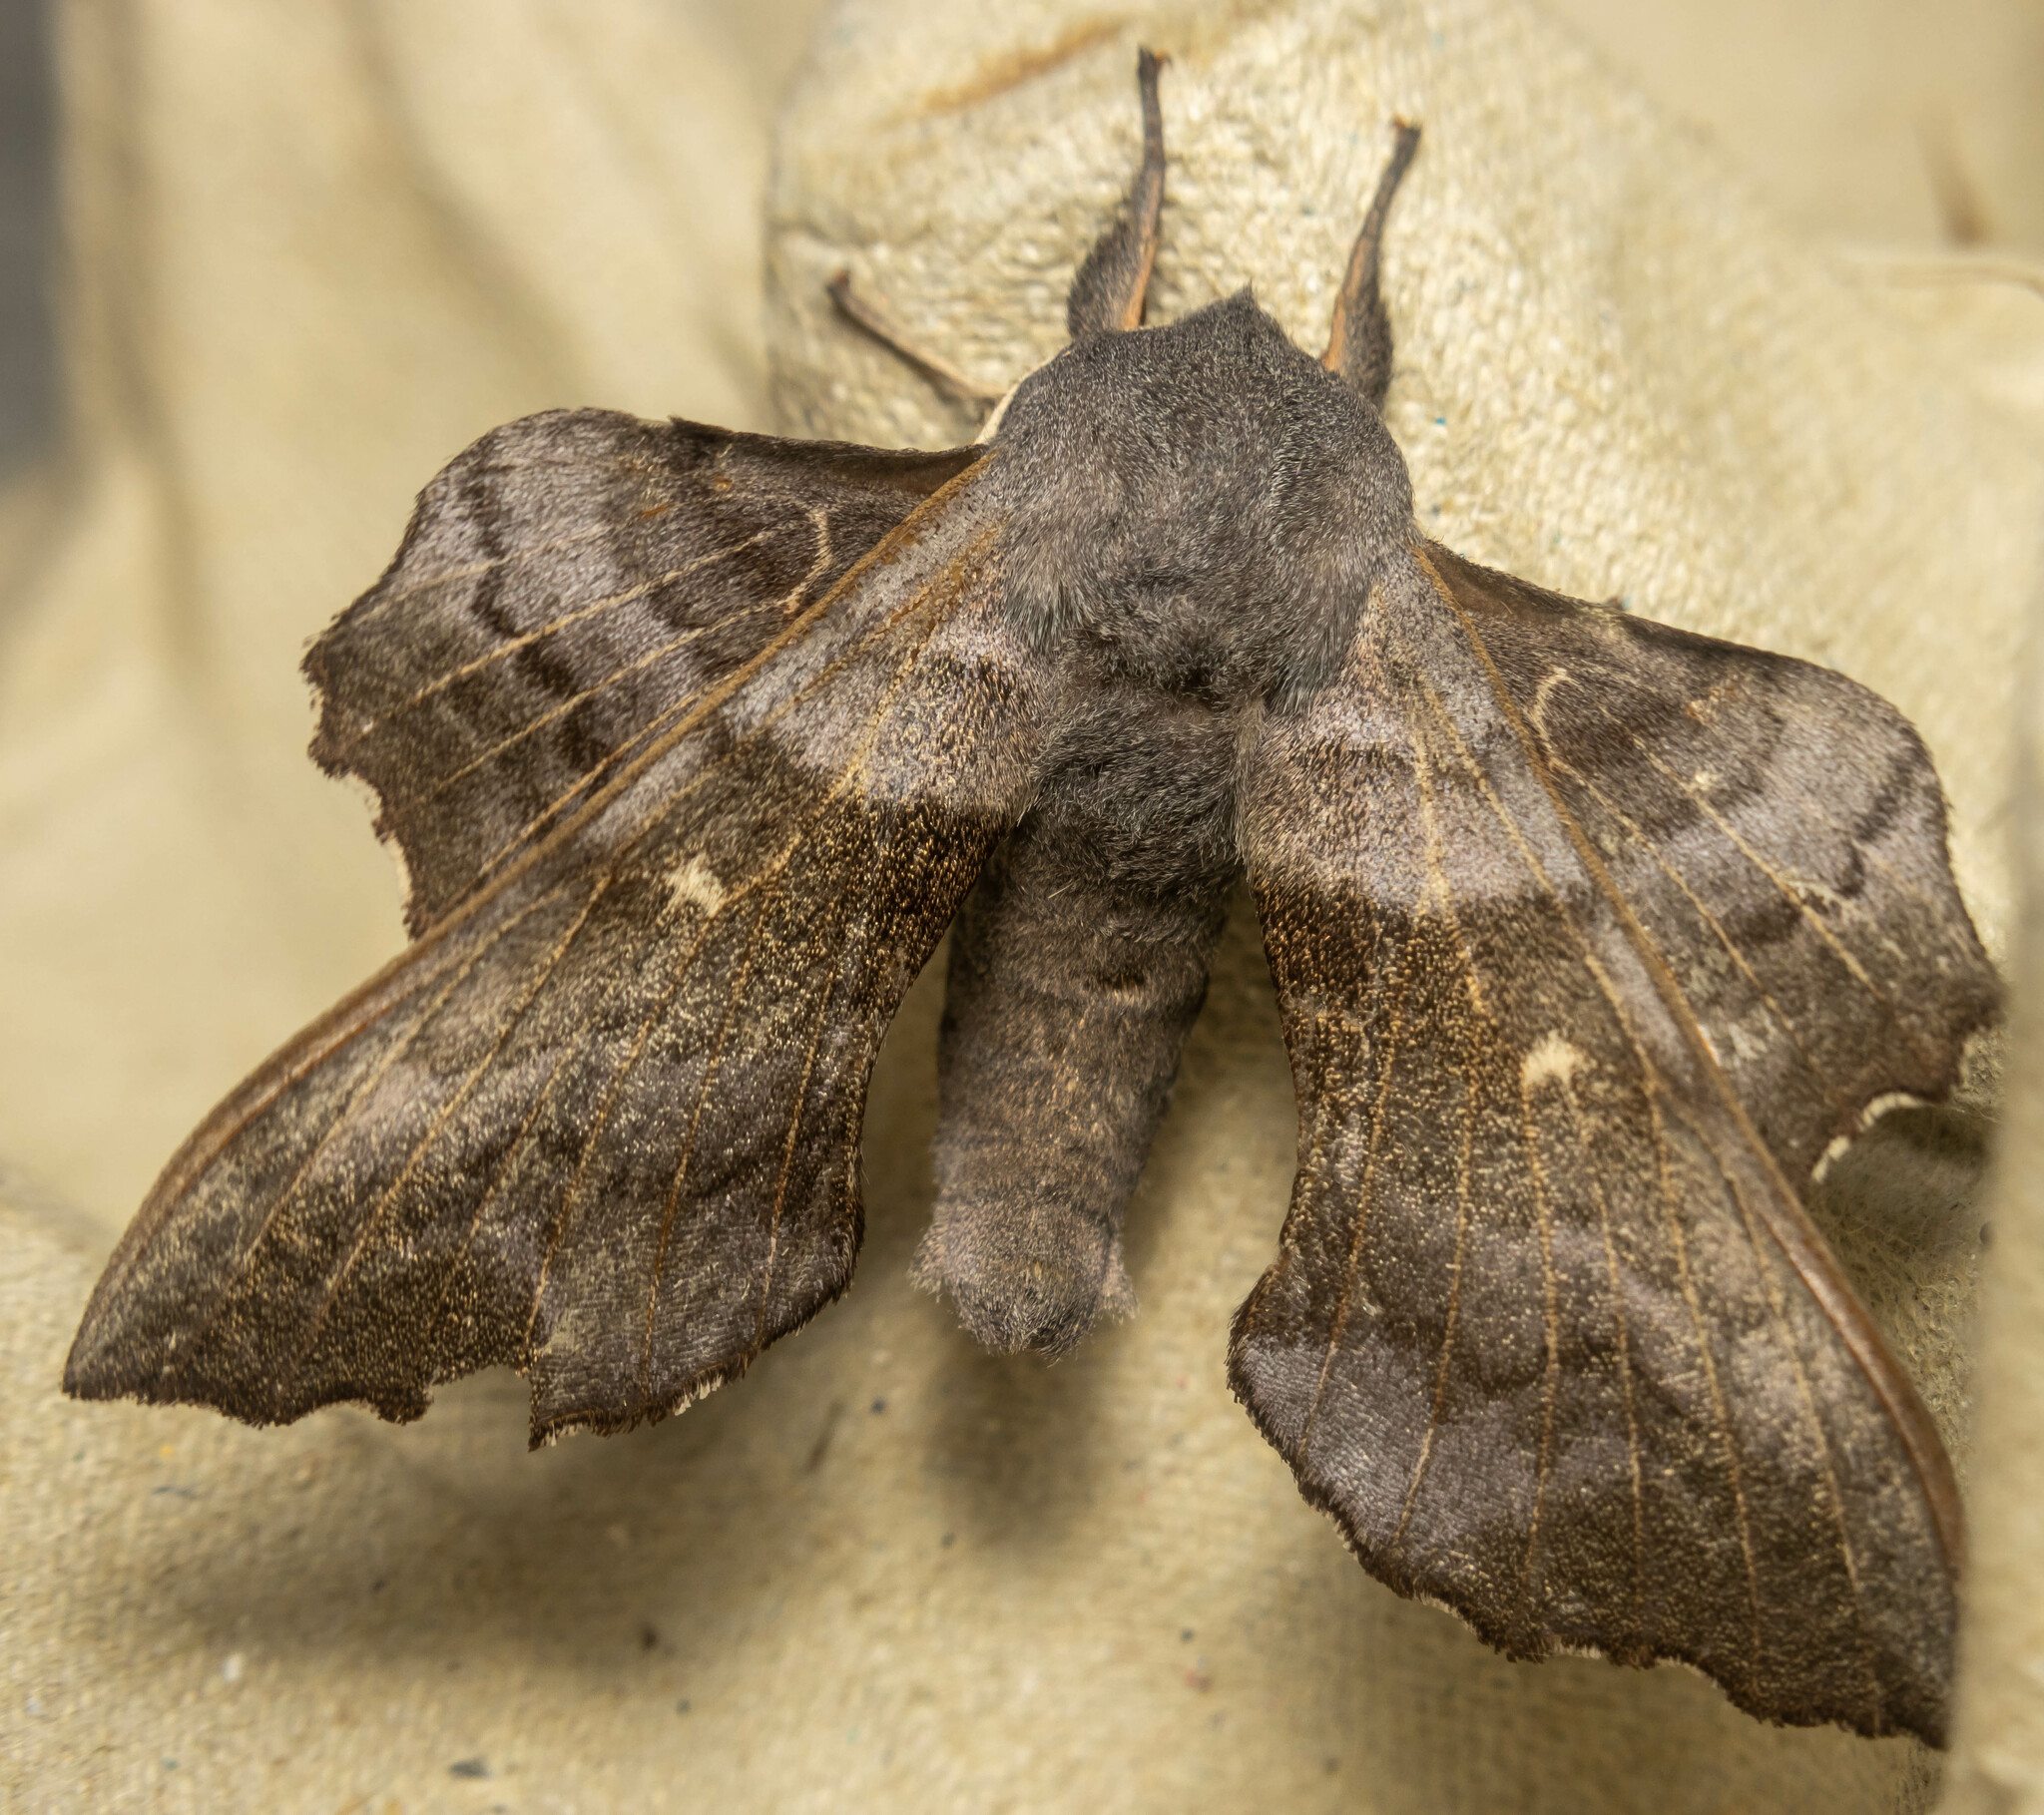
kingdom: Animalia
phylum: Arthropoda
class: Insecta
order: Lepidoptera
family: Sphingidae
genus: Laothoe
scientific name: Laothoe populi
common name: Poplar hawk-moth
